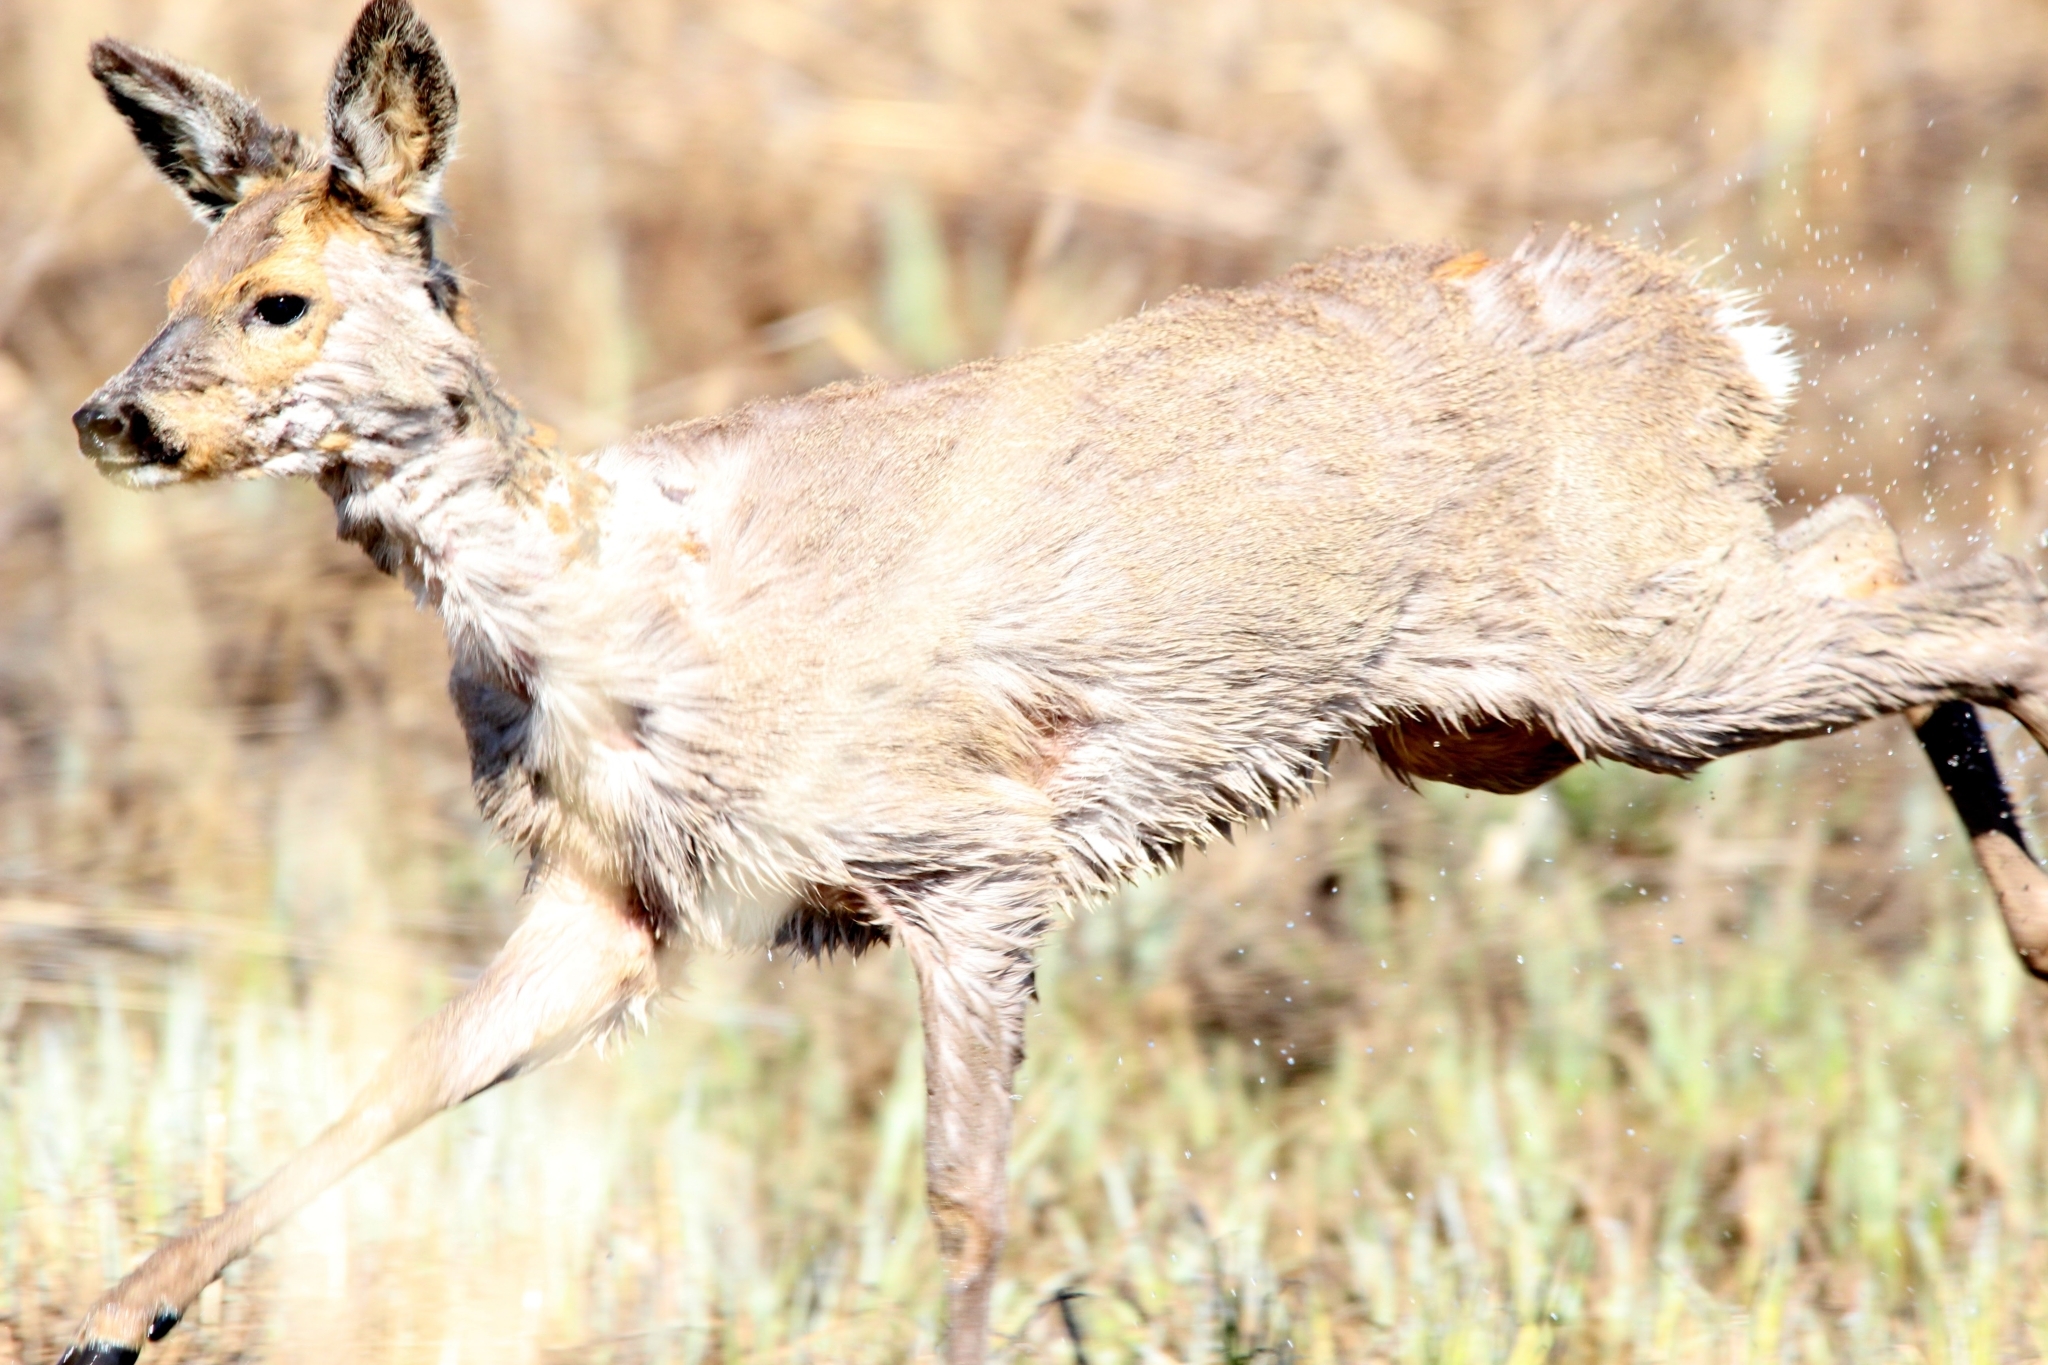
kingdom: Animalia
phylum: Chordata
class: Mammalia
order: Artiodactyla
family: Cervidae
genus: Capreolus
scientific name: Capreolus capreolus
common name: Western roe deer
